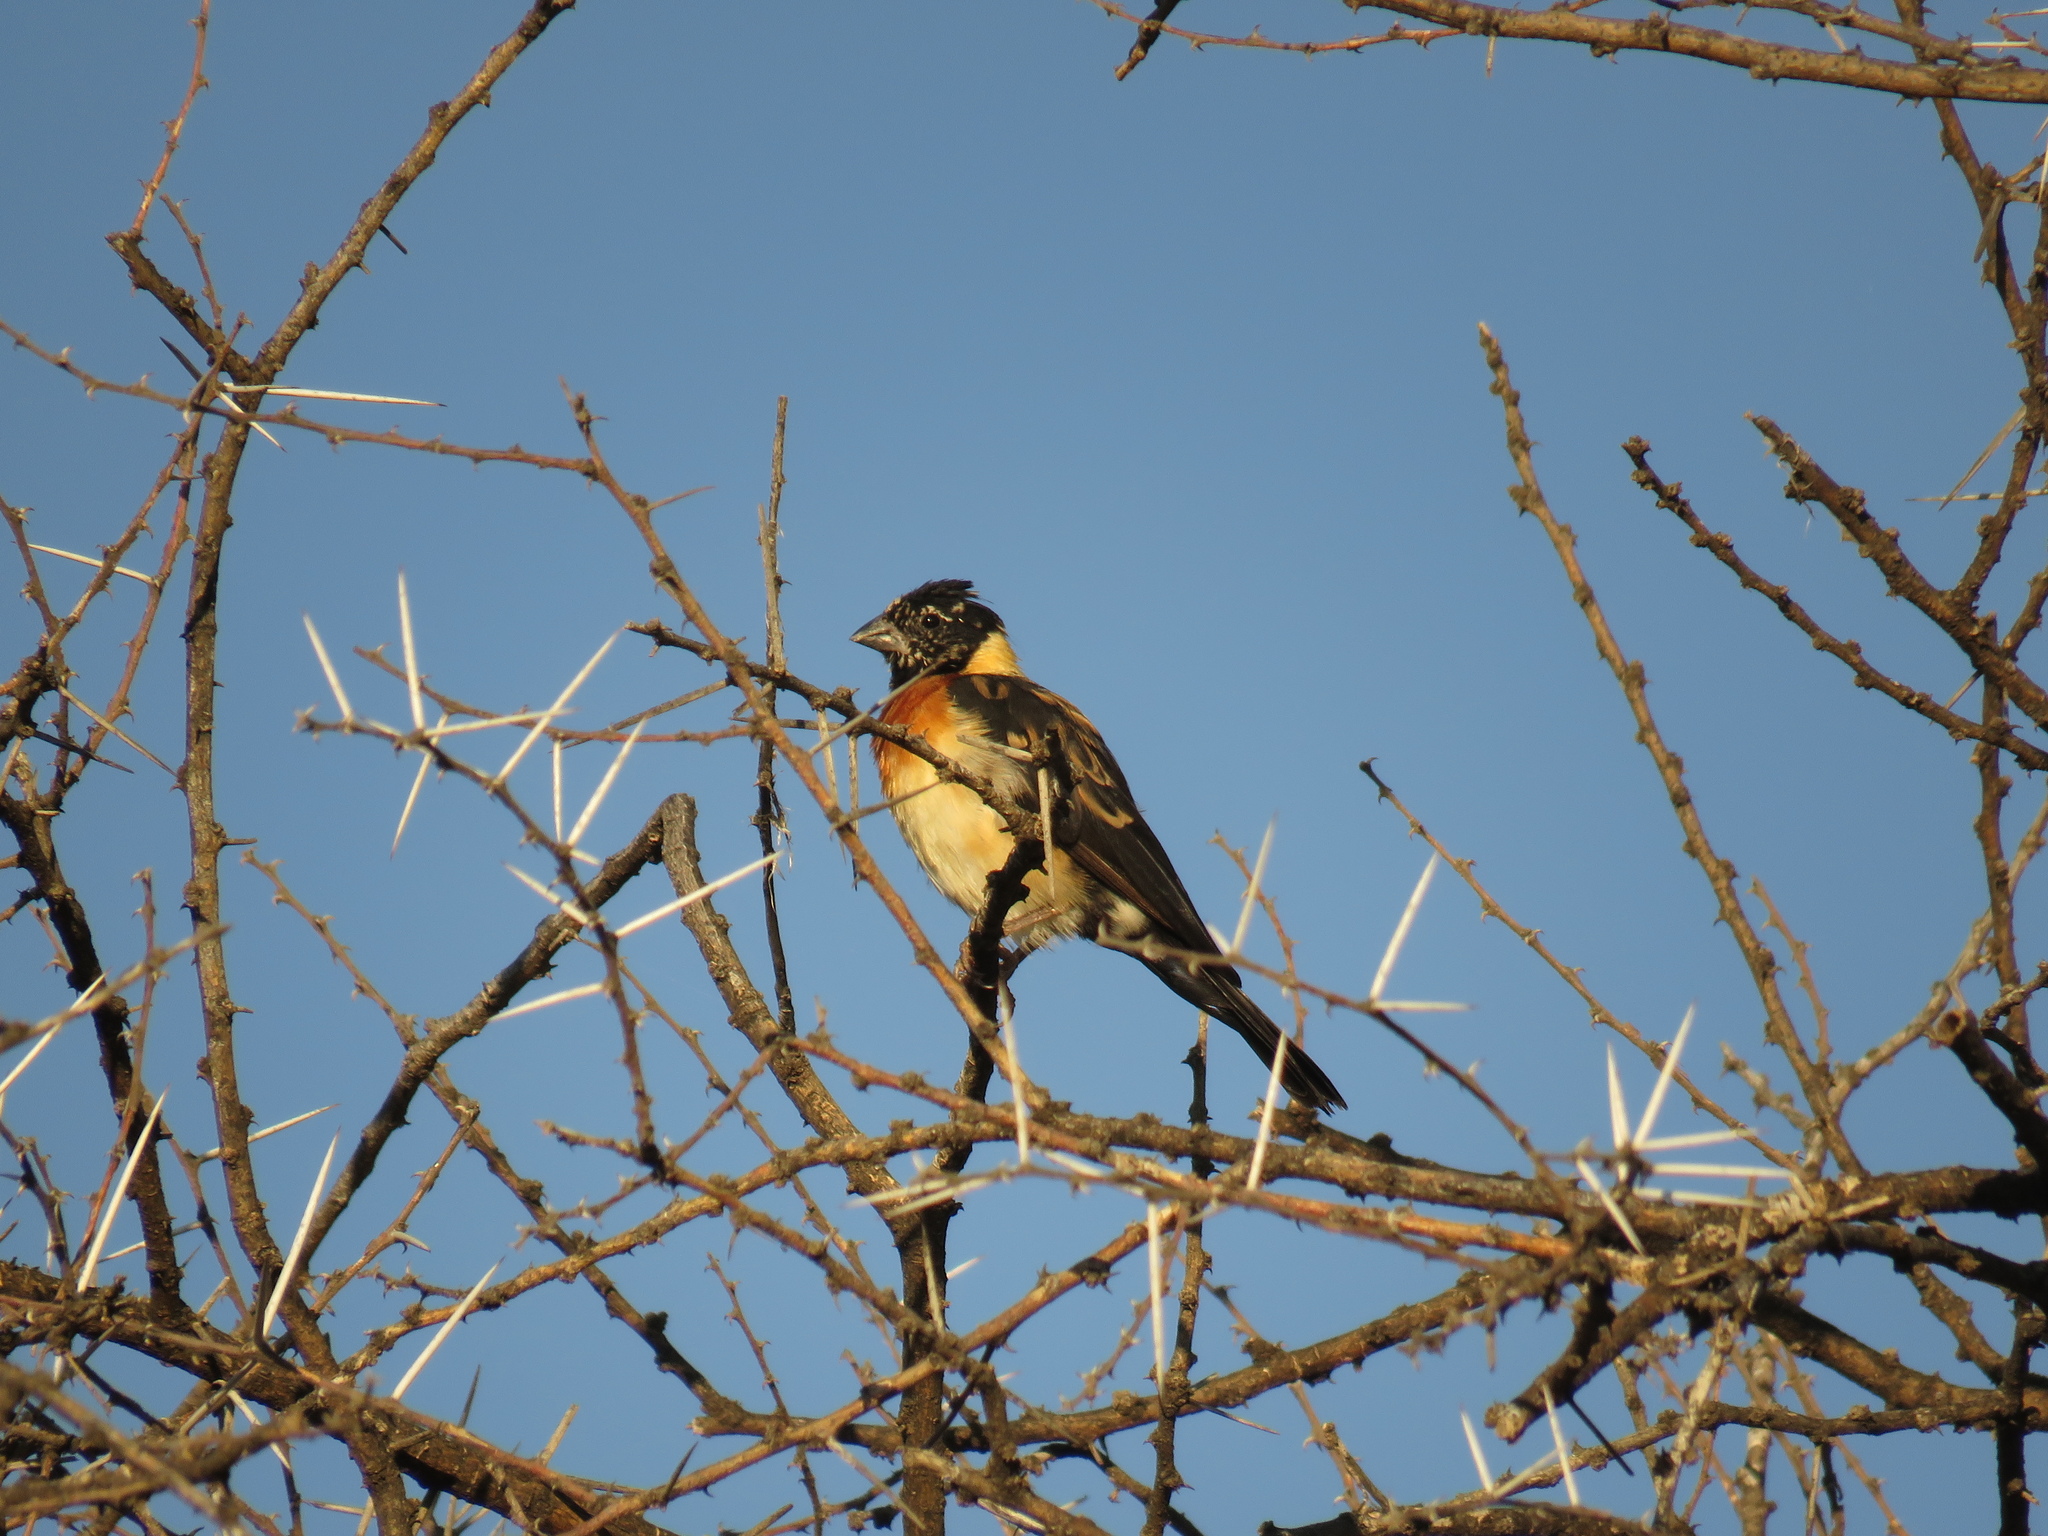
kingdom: Animalia
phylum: Chordata
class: Aves
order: Passeriformes
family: Viduidae
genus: Vidua
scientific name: Vidua paradisaea
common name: Long-tailed paradise whydah
